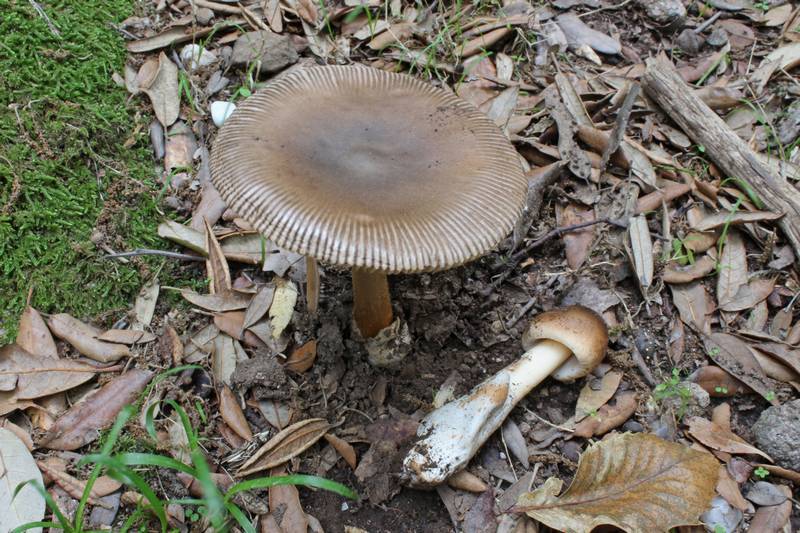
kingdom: Fungi
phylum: Basidiomycota
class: Agaricomycetes
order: Agaricales
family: Amanitaceae
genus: Amanita
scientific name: Amanita fulvoides
